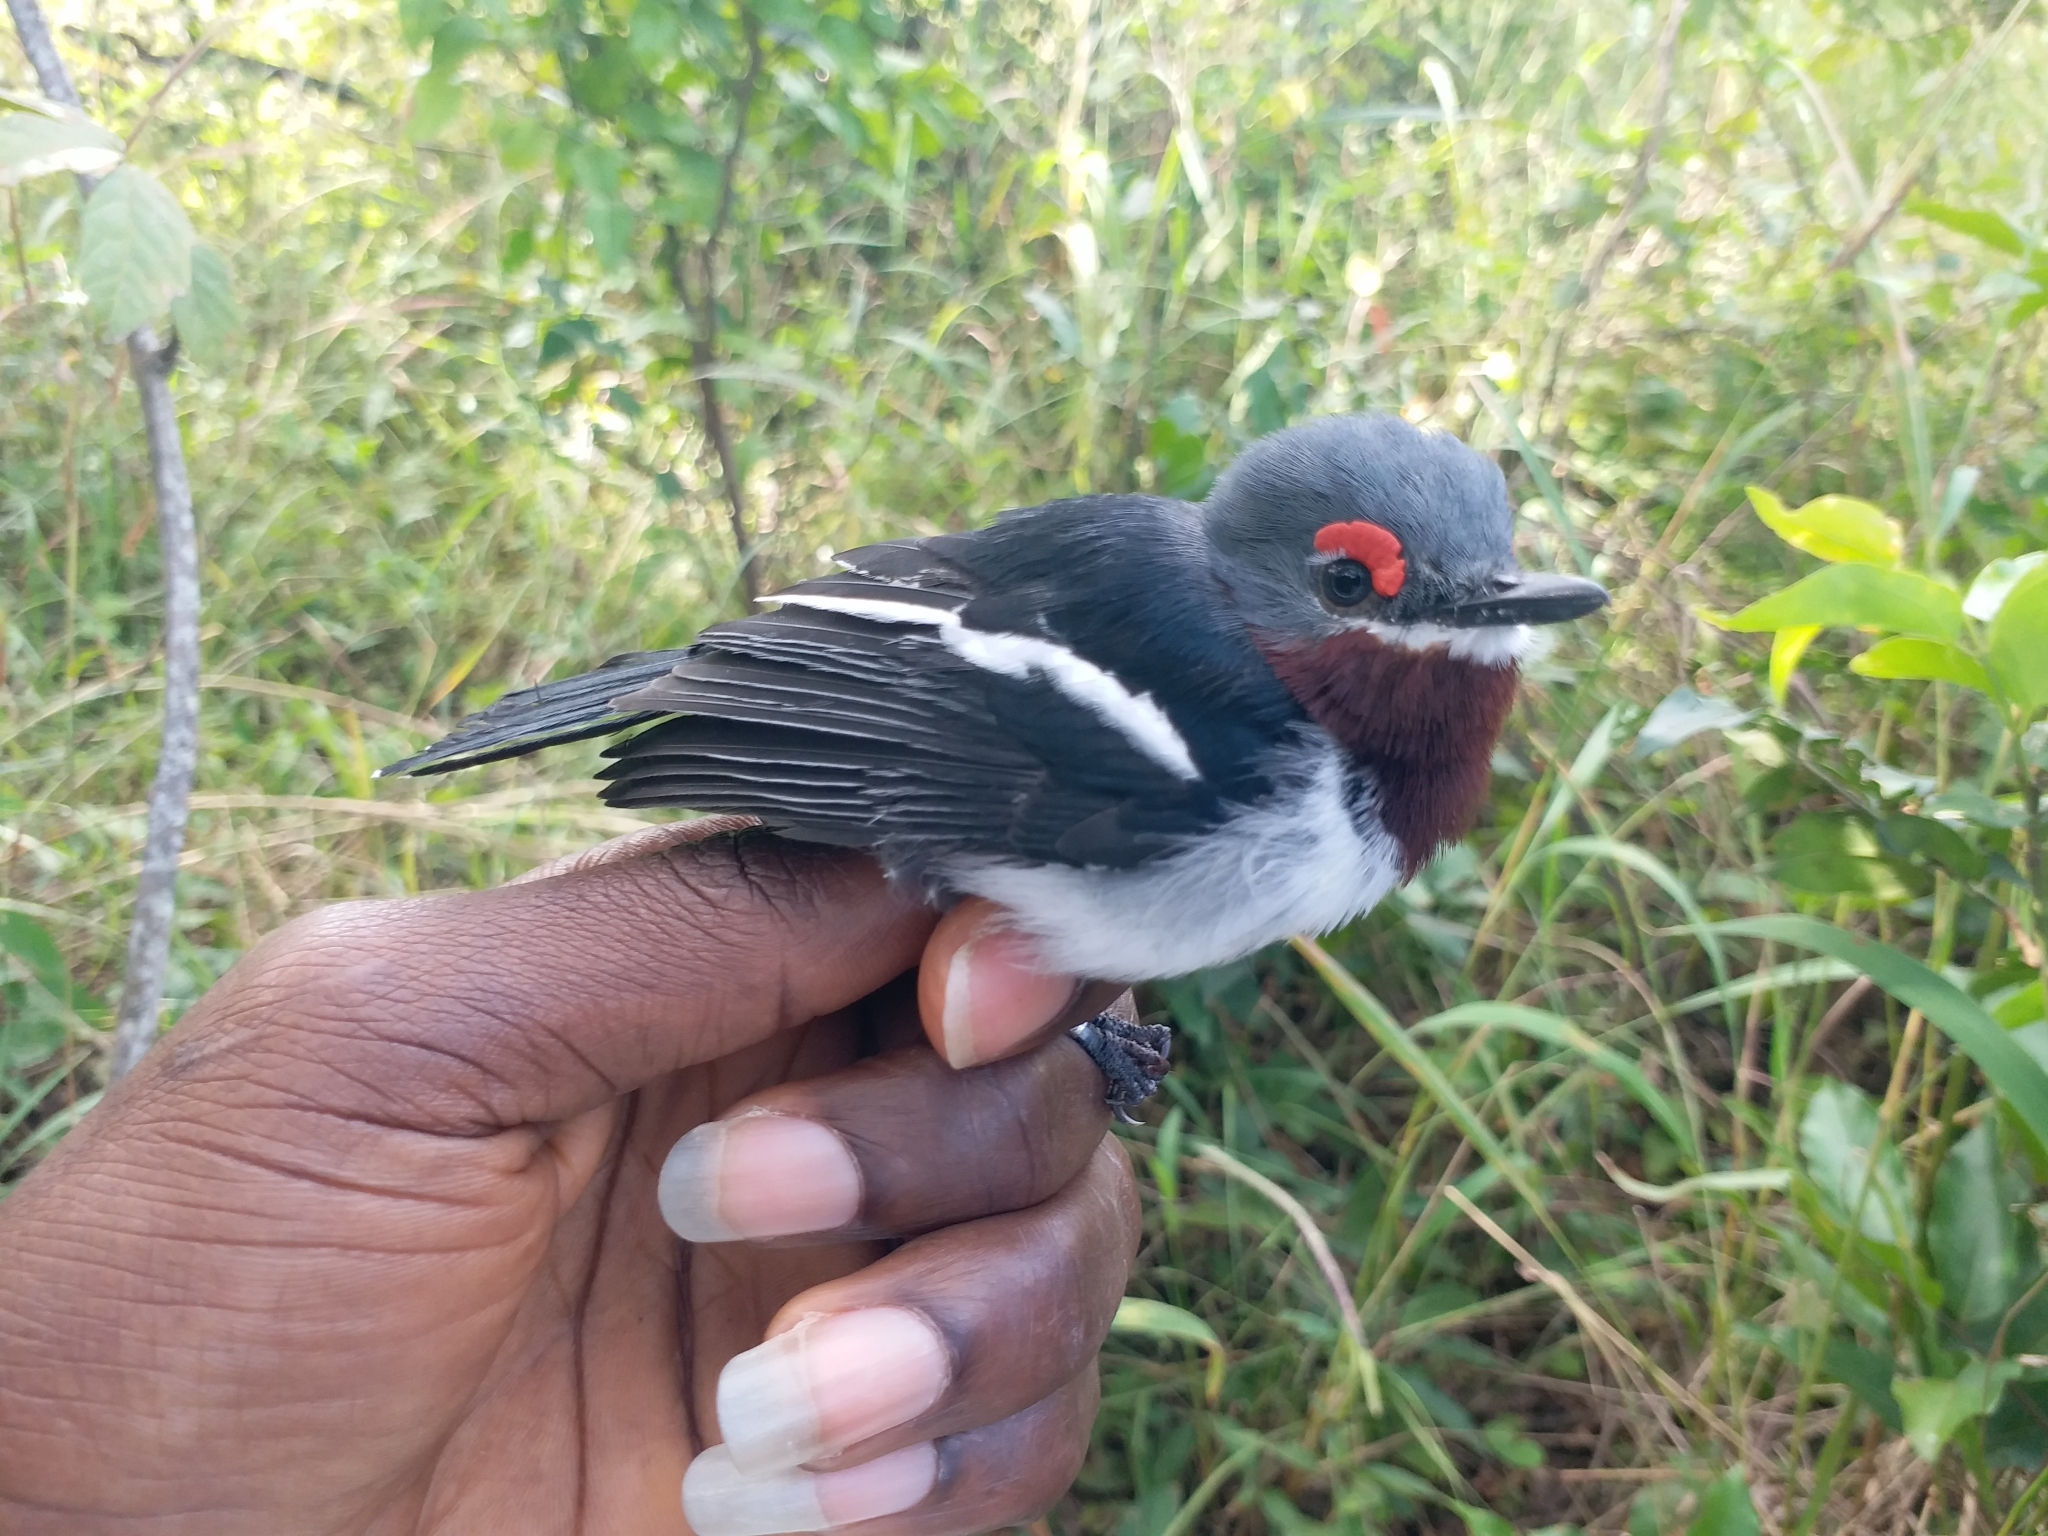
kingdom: Animalia
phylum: Chordata
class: Aves
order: Passeriformes
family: Platysteiridae
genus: Platysteira
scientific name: Platysteira cyanea
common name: Brown-throated wattle-eye
